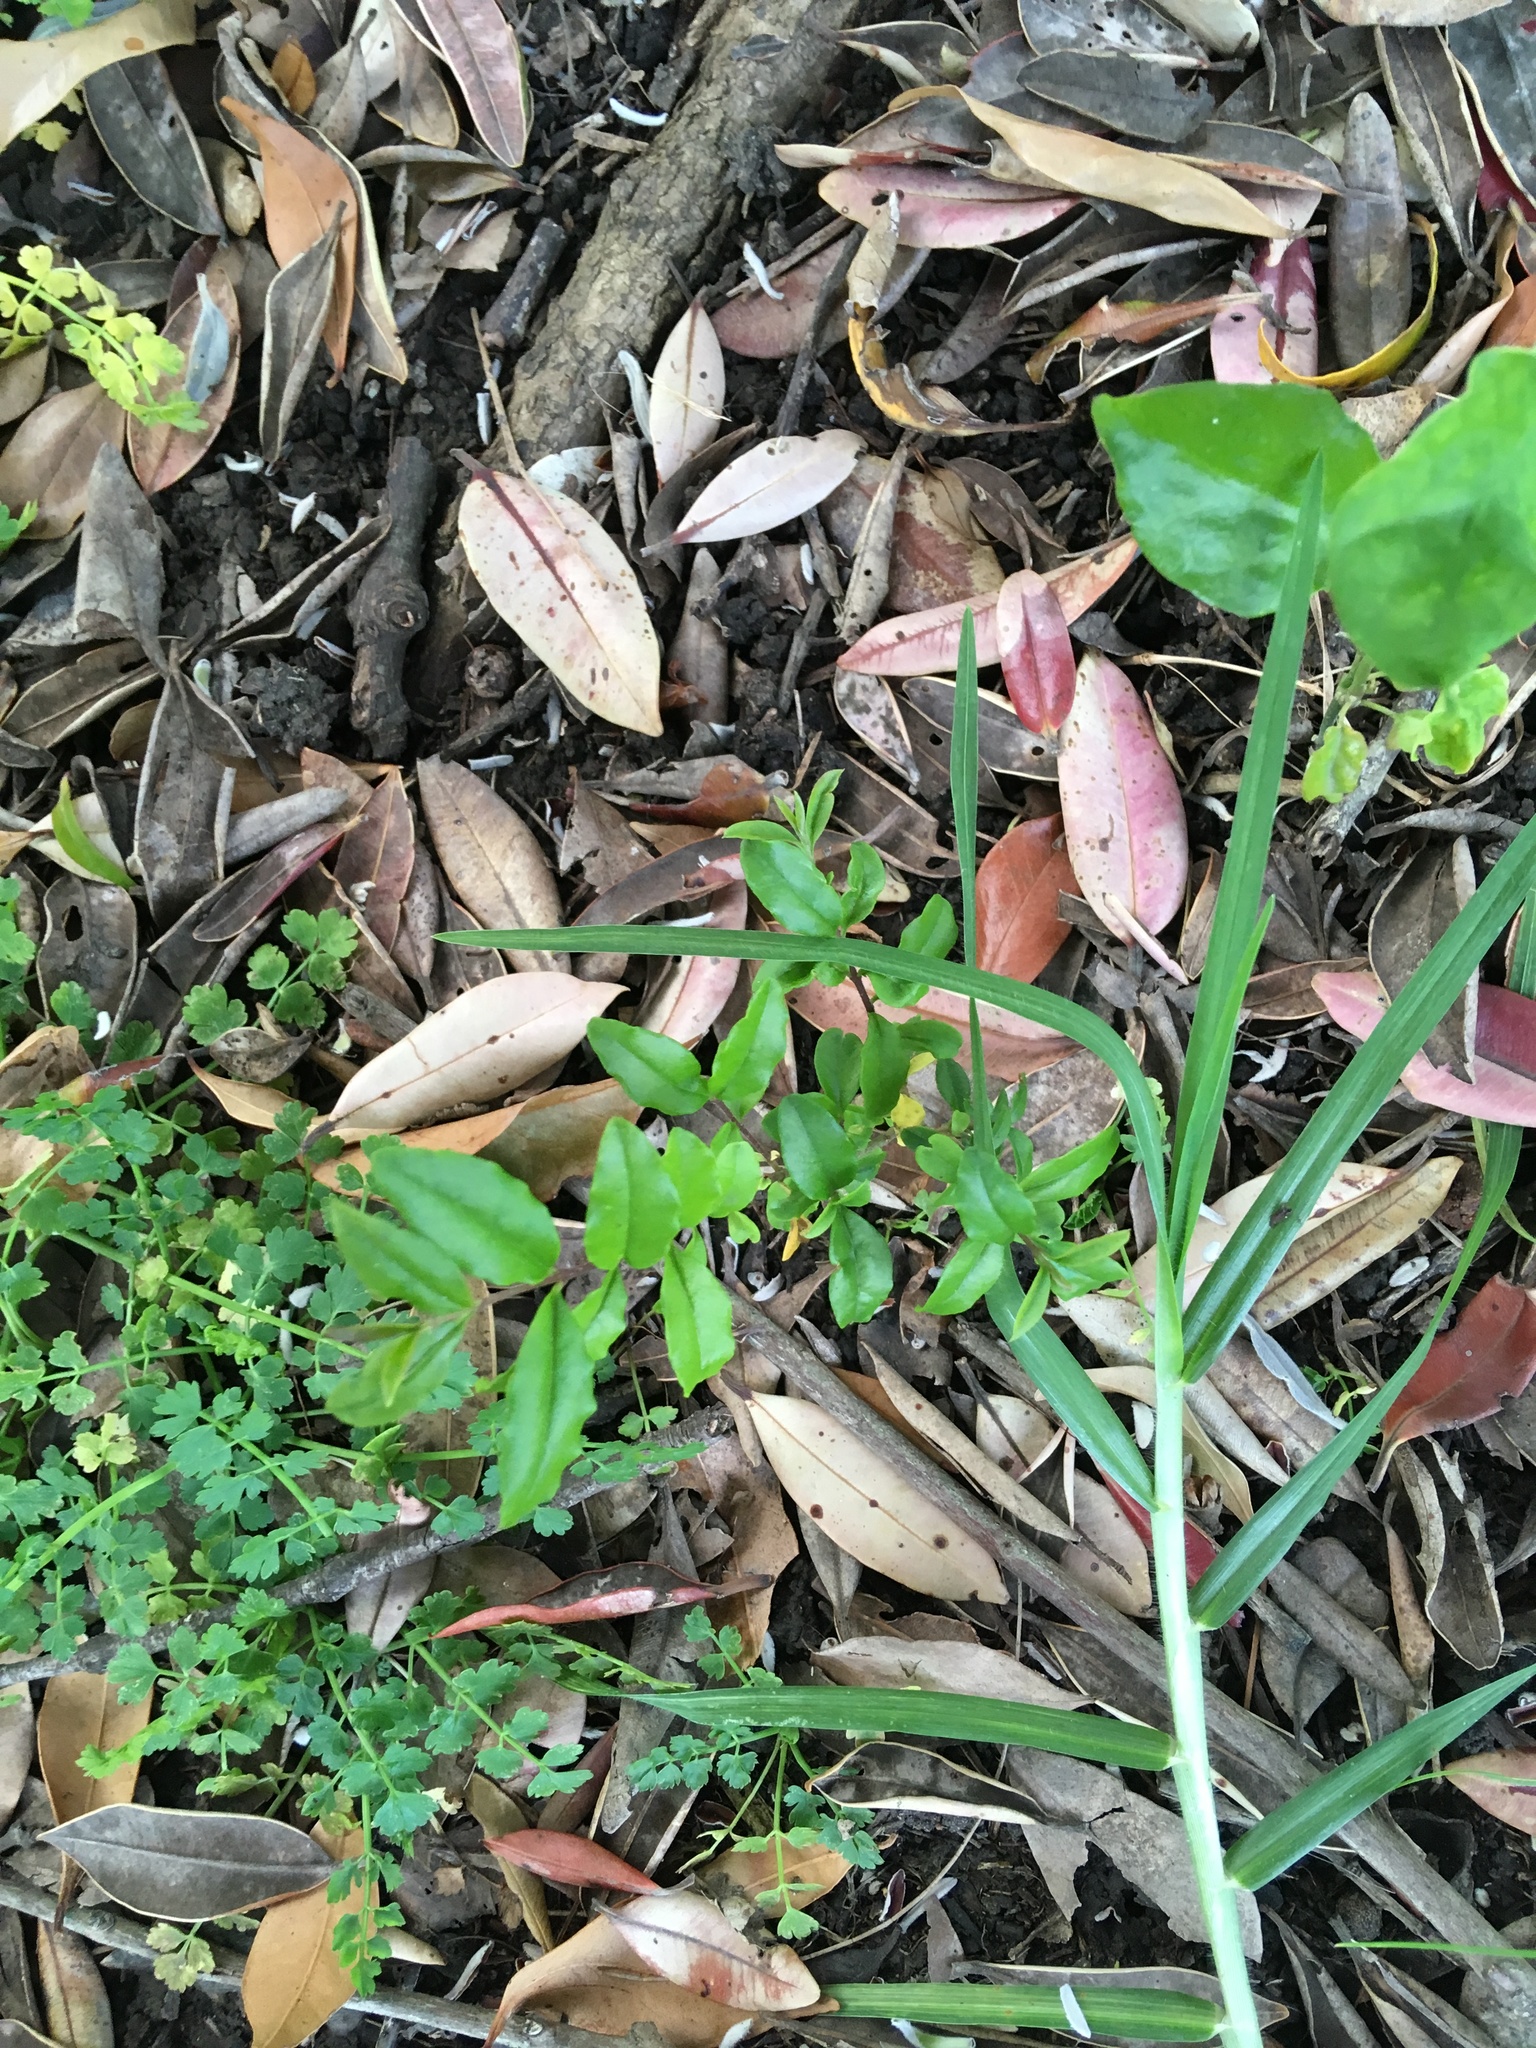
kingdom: Plantae
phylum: Tracheophyta
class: Magnoliopsida
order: Lamiales
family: Oleaceae
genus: Ligustrum
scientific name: Ligustrum sinense
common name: Chinese privet
